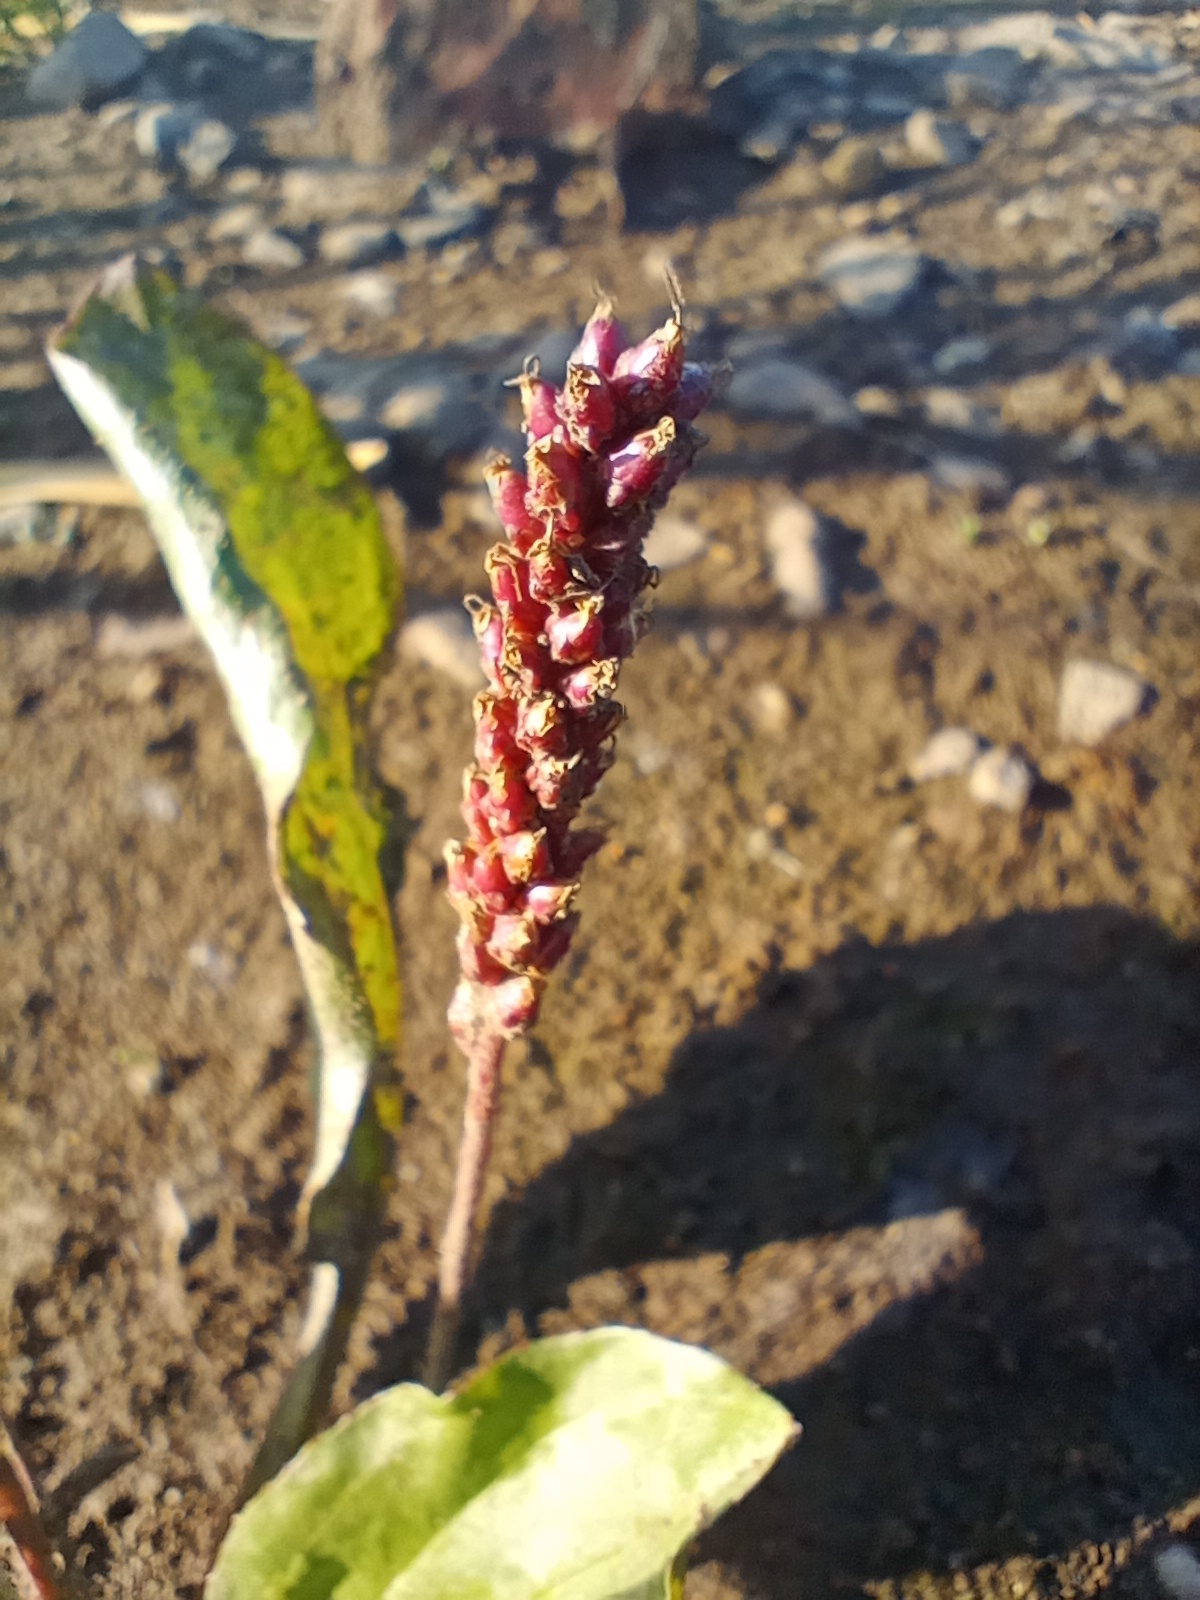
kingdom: Plantae
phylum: Tracheophyta
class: Magnoliopsida
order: Lamiales
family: Plantaginaceae
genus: Plantago
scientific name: Plantago major
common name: Common plantain
